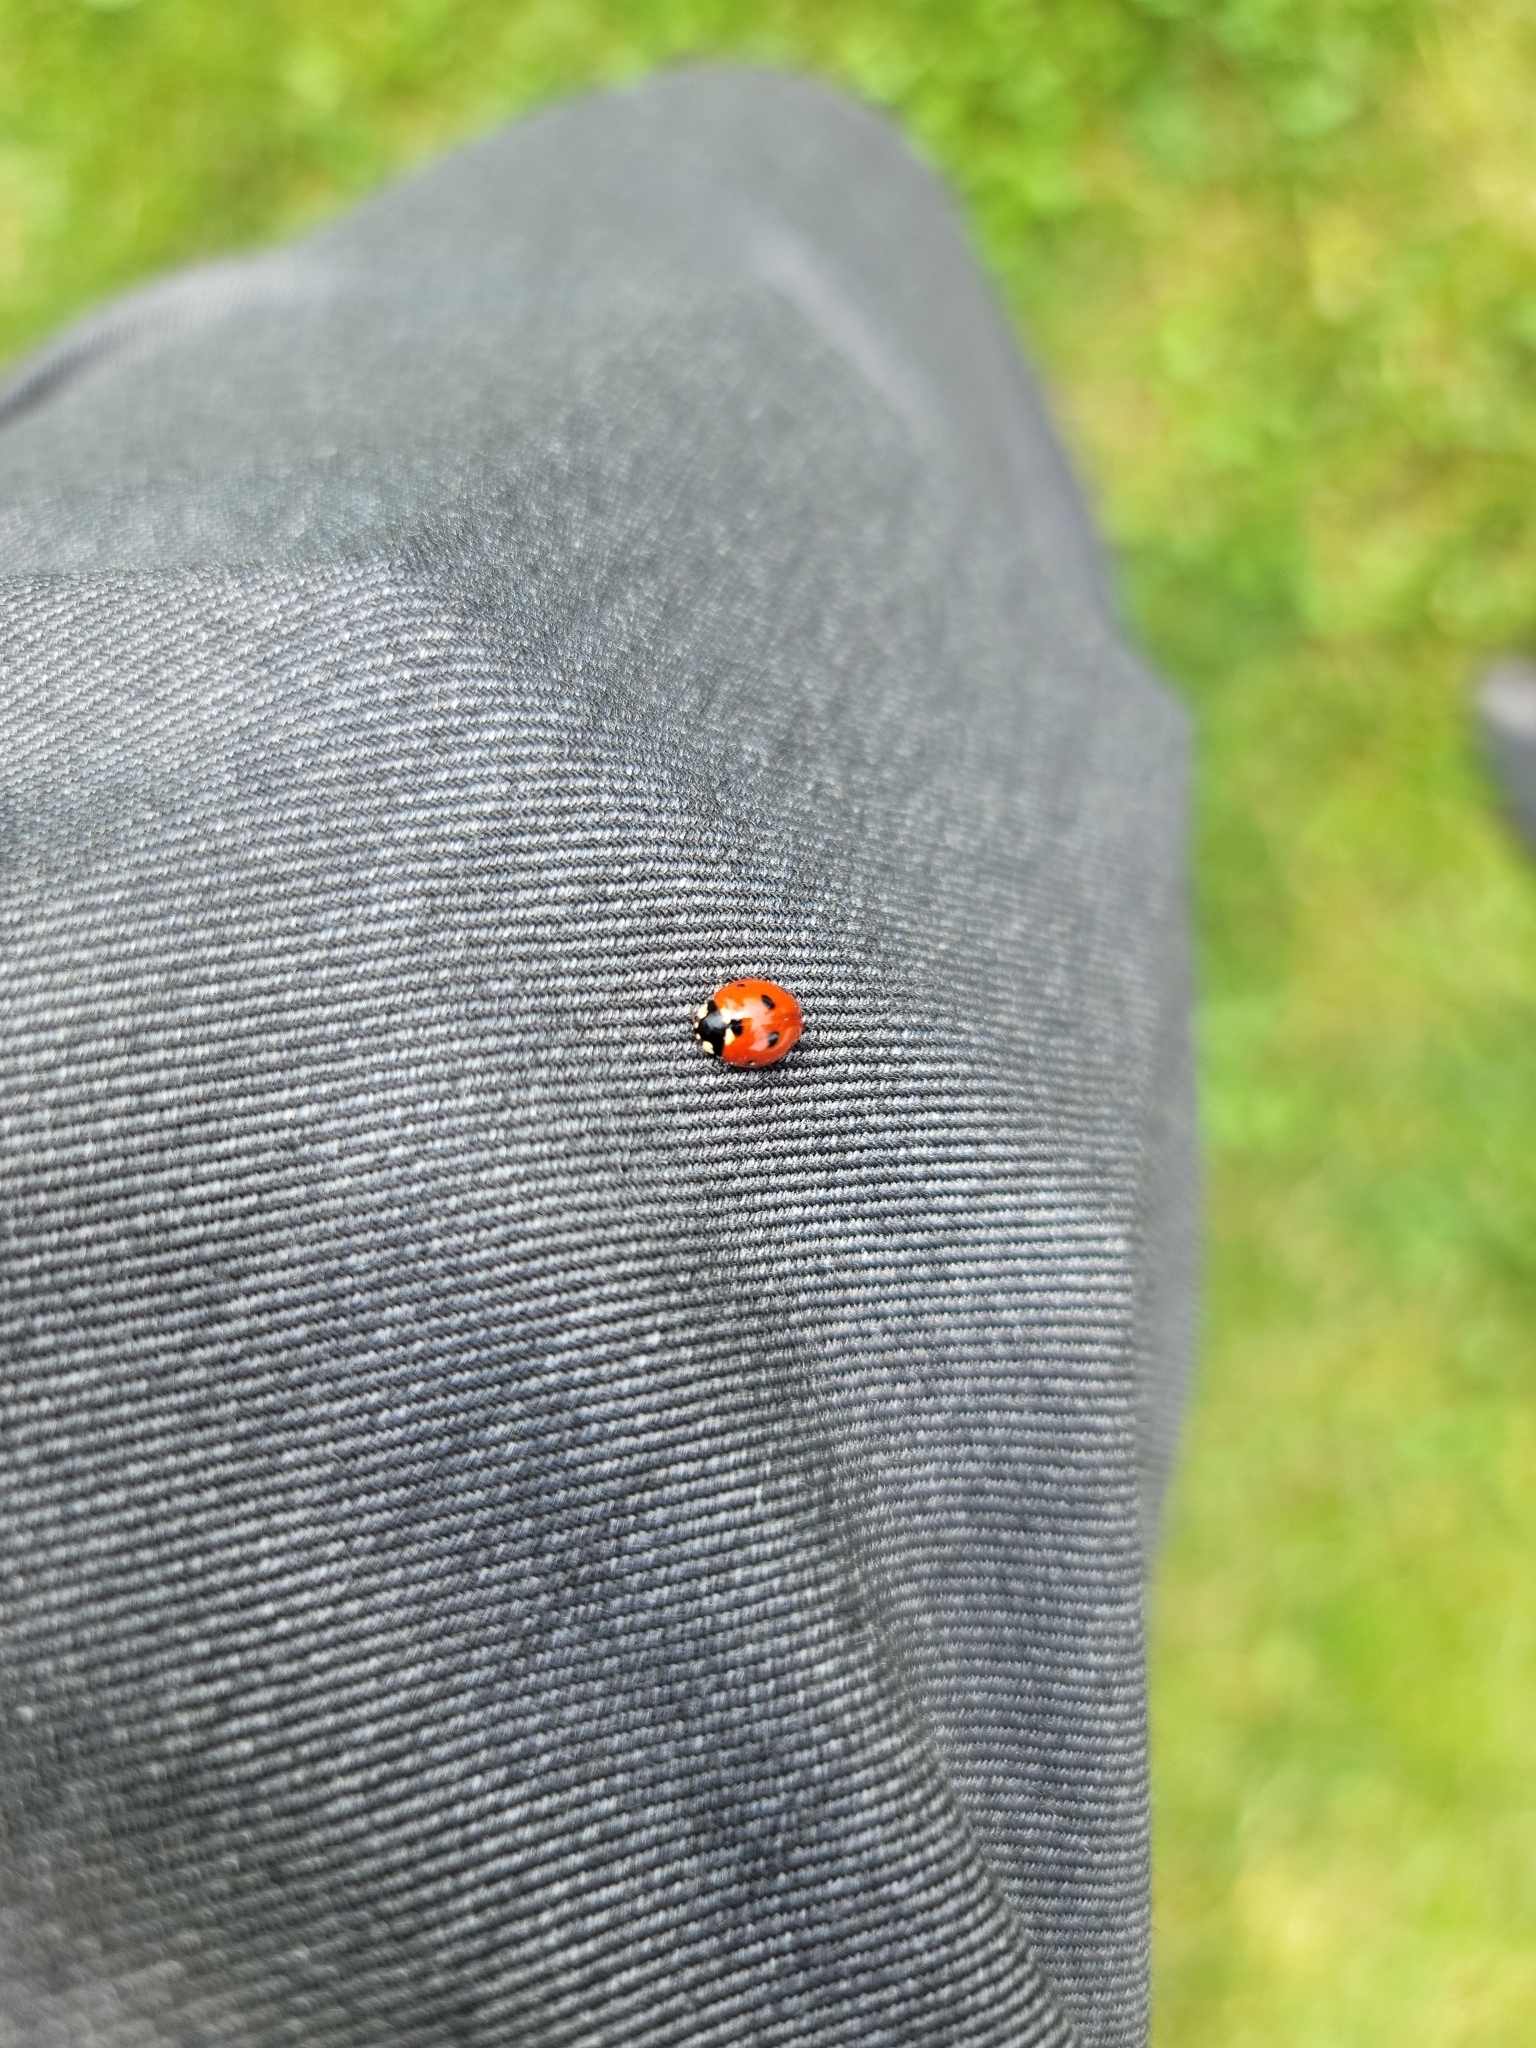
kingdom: Animalia
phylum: Arthropoda
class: Insecta
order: Coleoptera
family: Coccinellidae
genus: Coccinella
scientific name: Coccinella septempunctata
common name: Sevenspotted lady beetle
